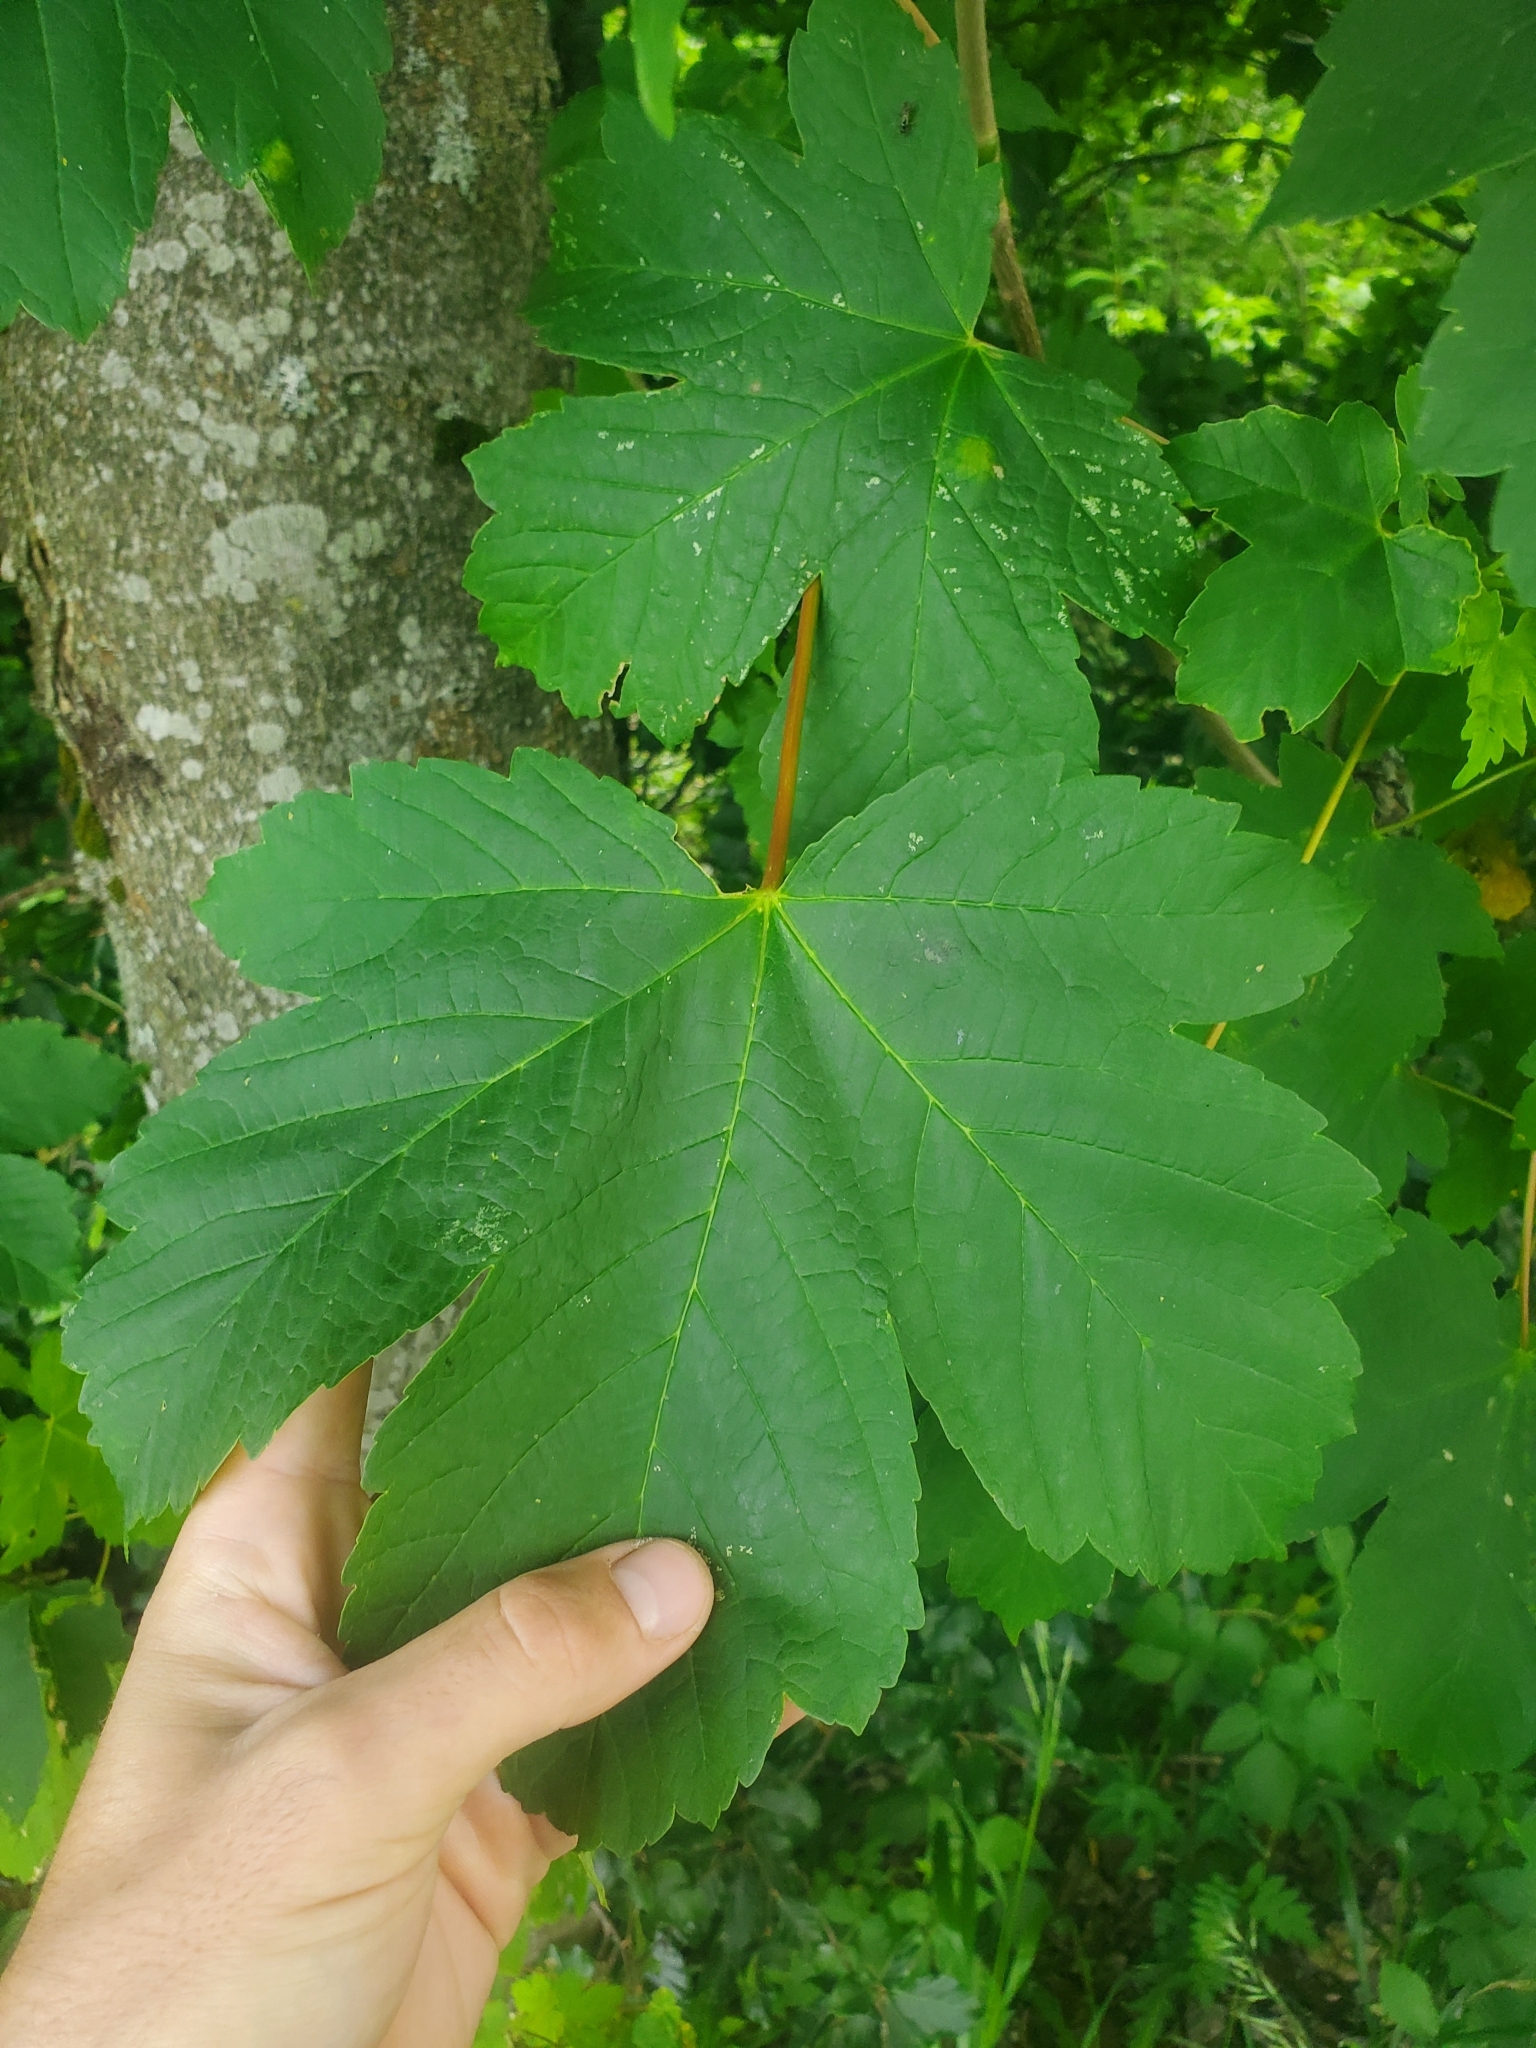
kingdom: Plantae
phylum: Tracheophyta
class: Magnoliopsida
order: Sapindales
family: Sapindaceae
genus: Acer
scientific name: Acer pseudoplatanus
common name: Sycamore
